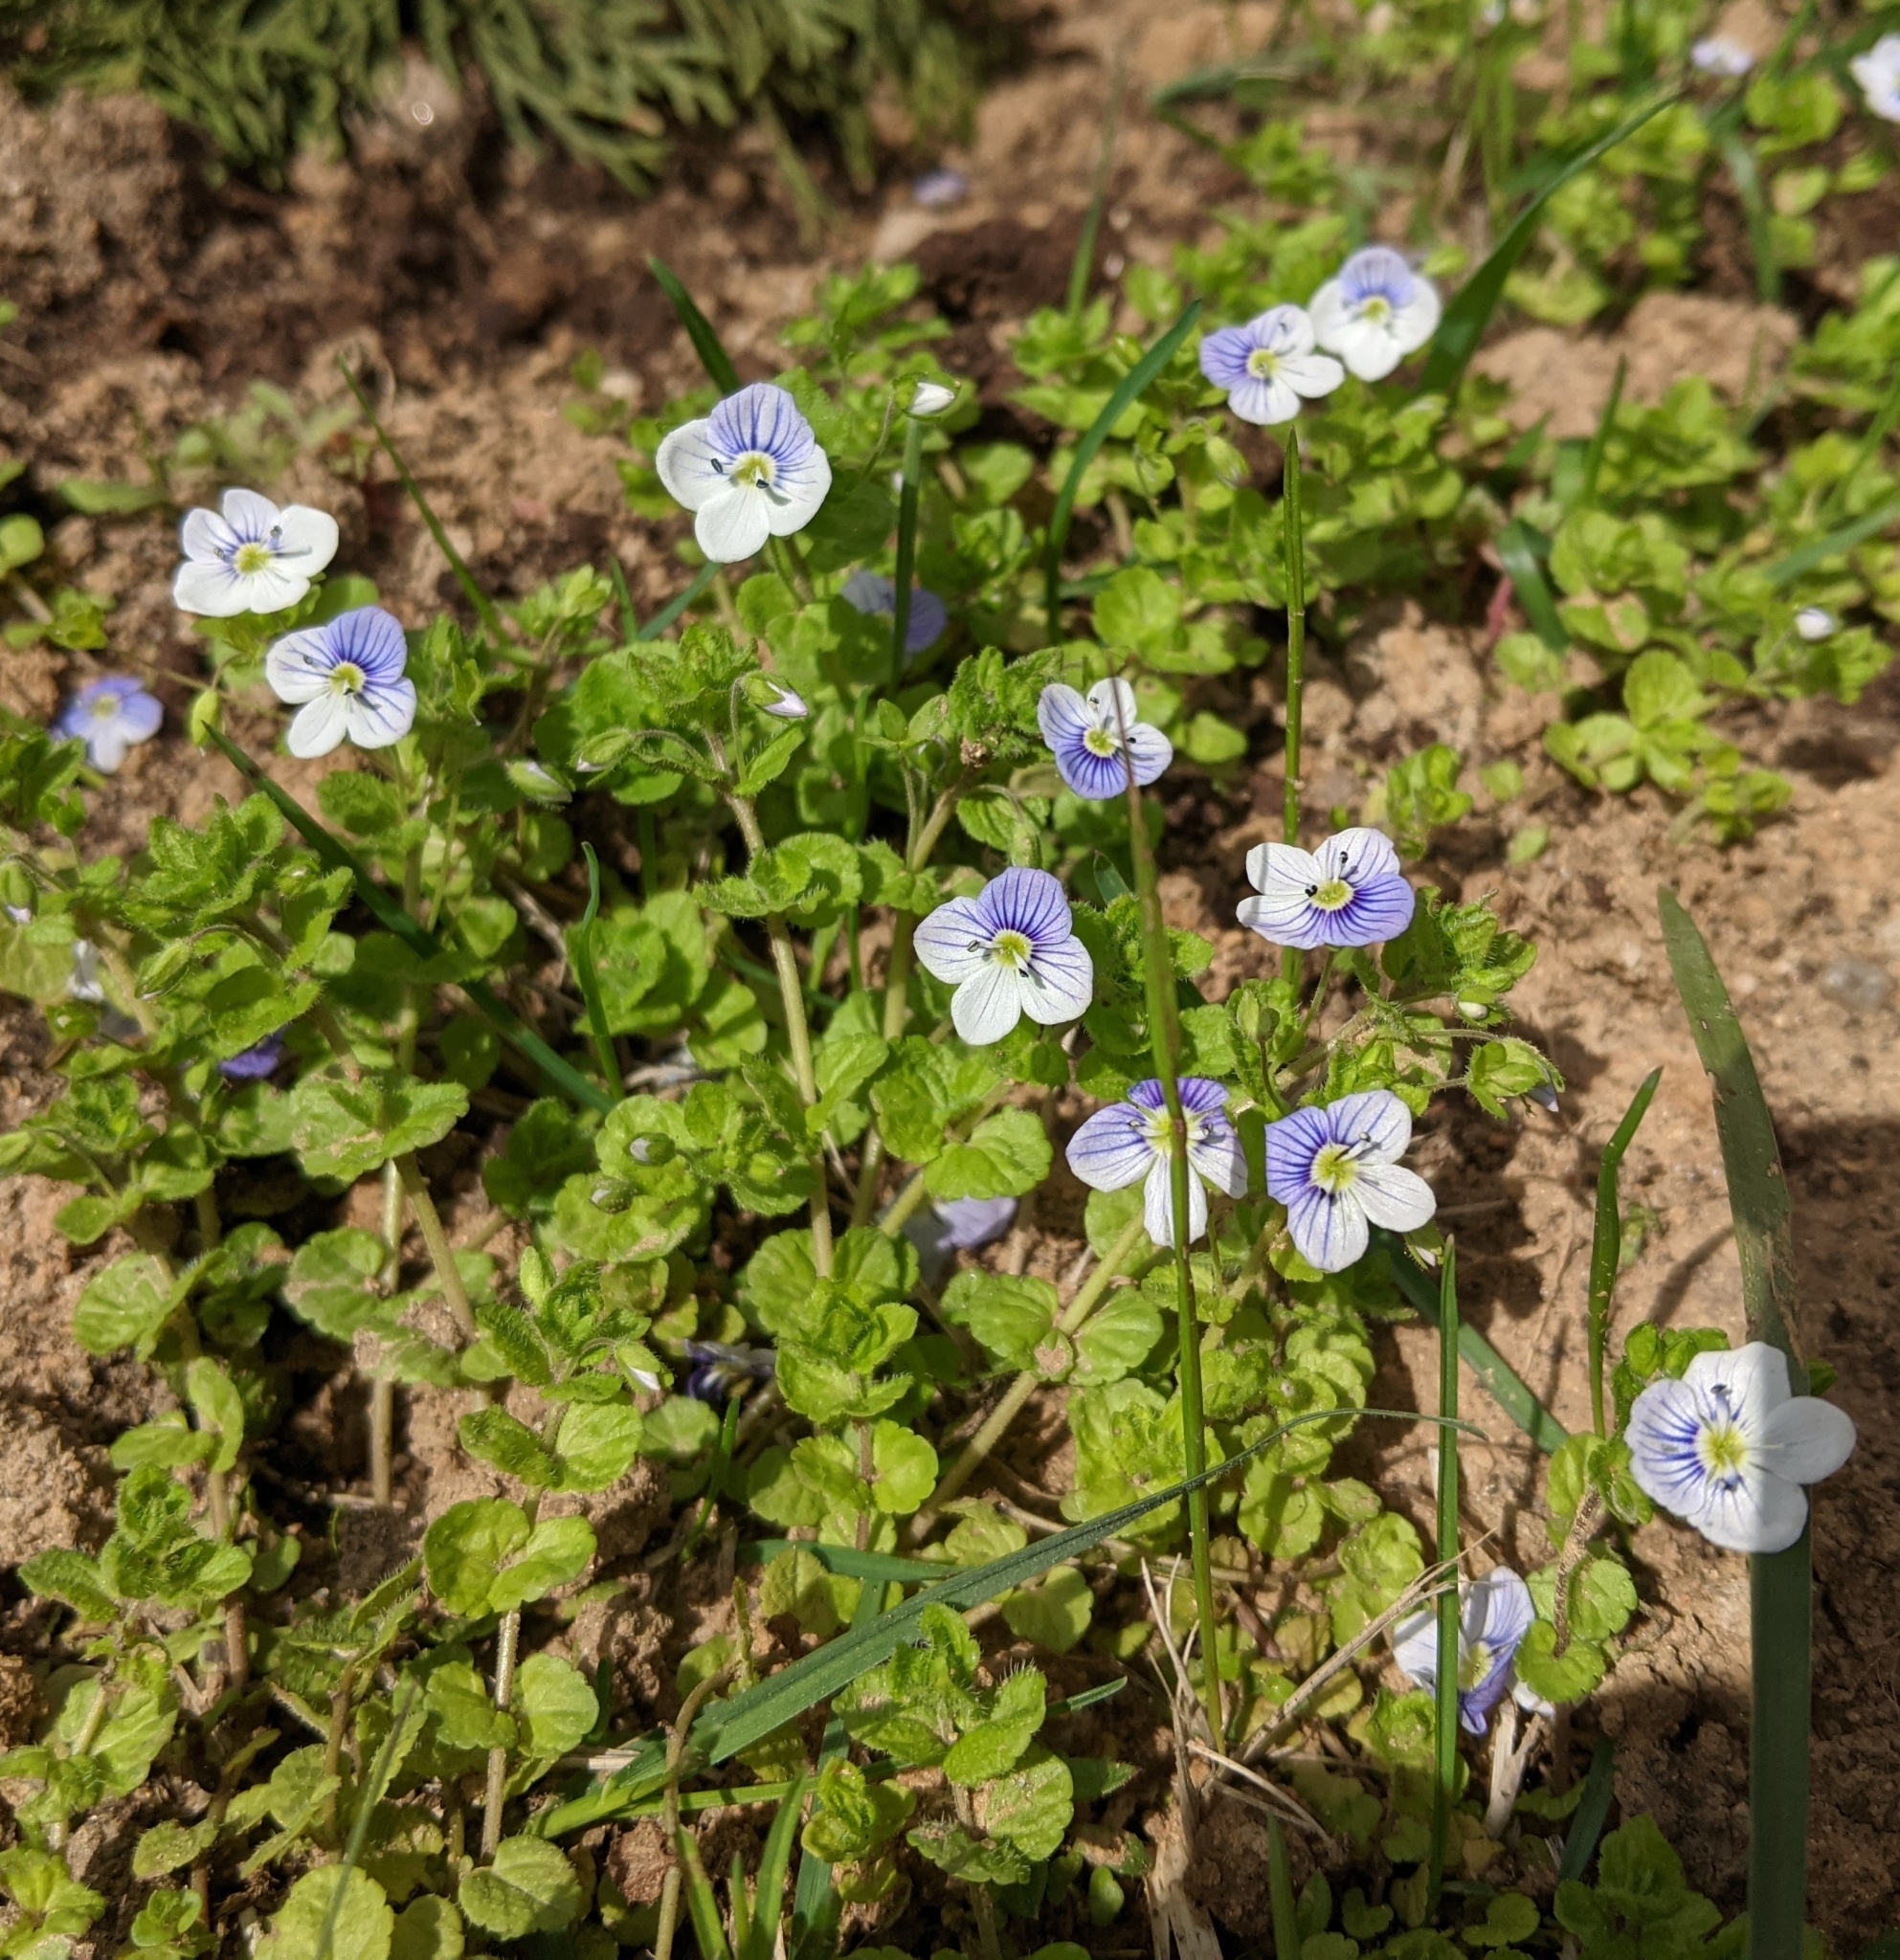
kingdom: Plantae
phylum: Tracheophyta
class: Magnoliopsida
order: Lamiales
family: Plantaginaceae
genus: Veronica
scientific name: Veronica filiformis
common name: Slender speedwell
